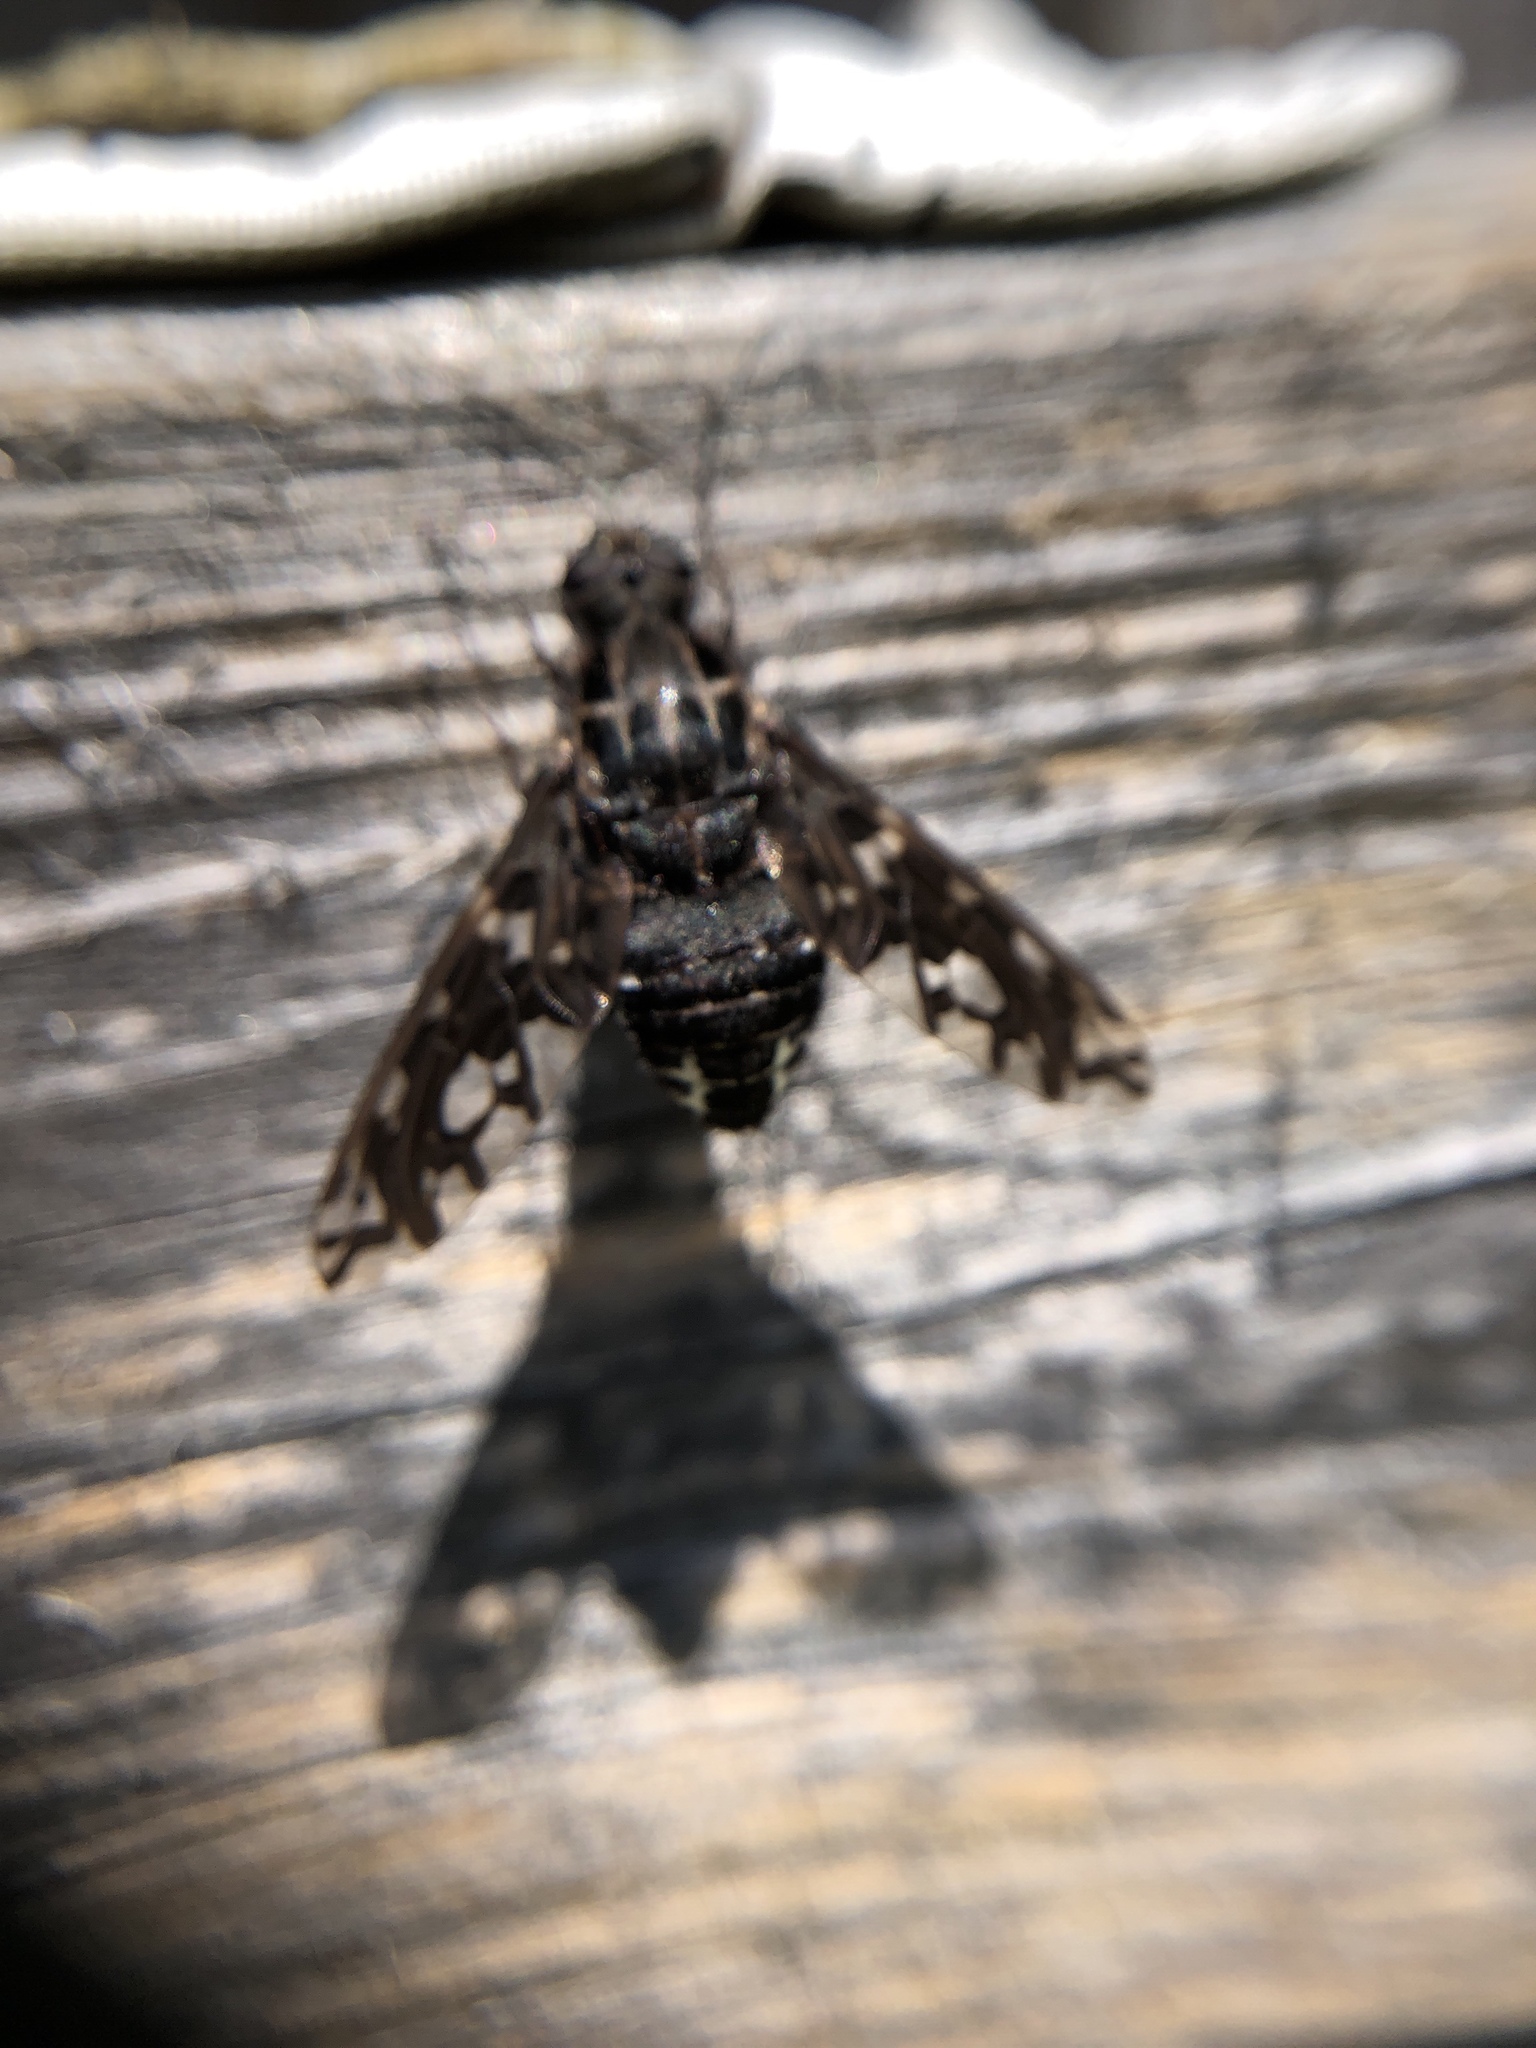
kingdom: Animalia
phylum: Arthropoda
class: Insecta
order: Diptera
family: Bombyliidae
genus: Xenox
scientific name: Xenox tigrinus
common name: Tiger bee fly
